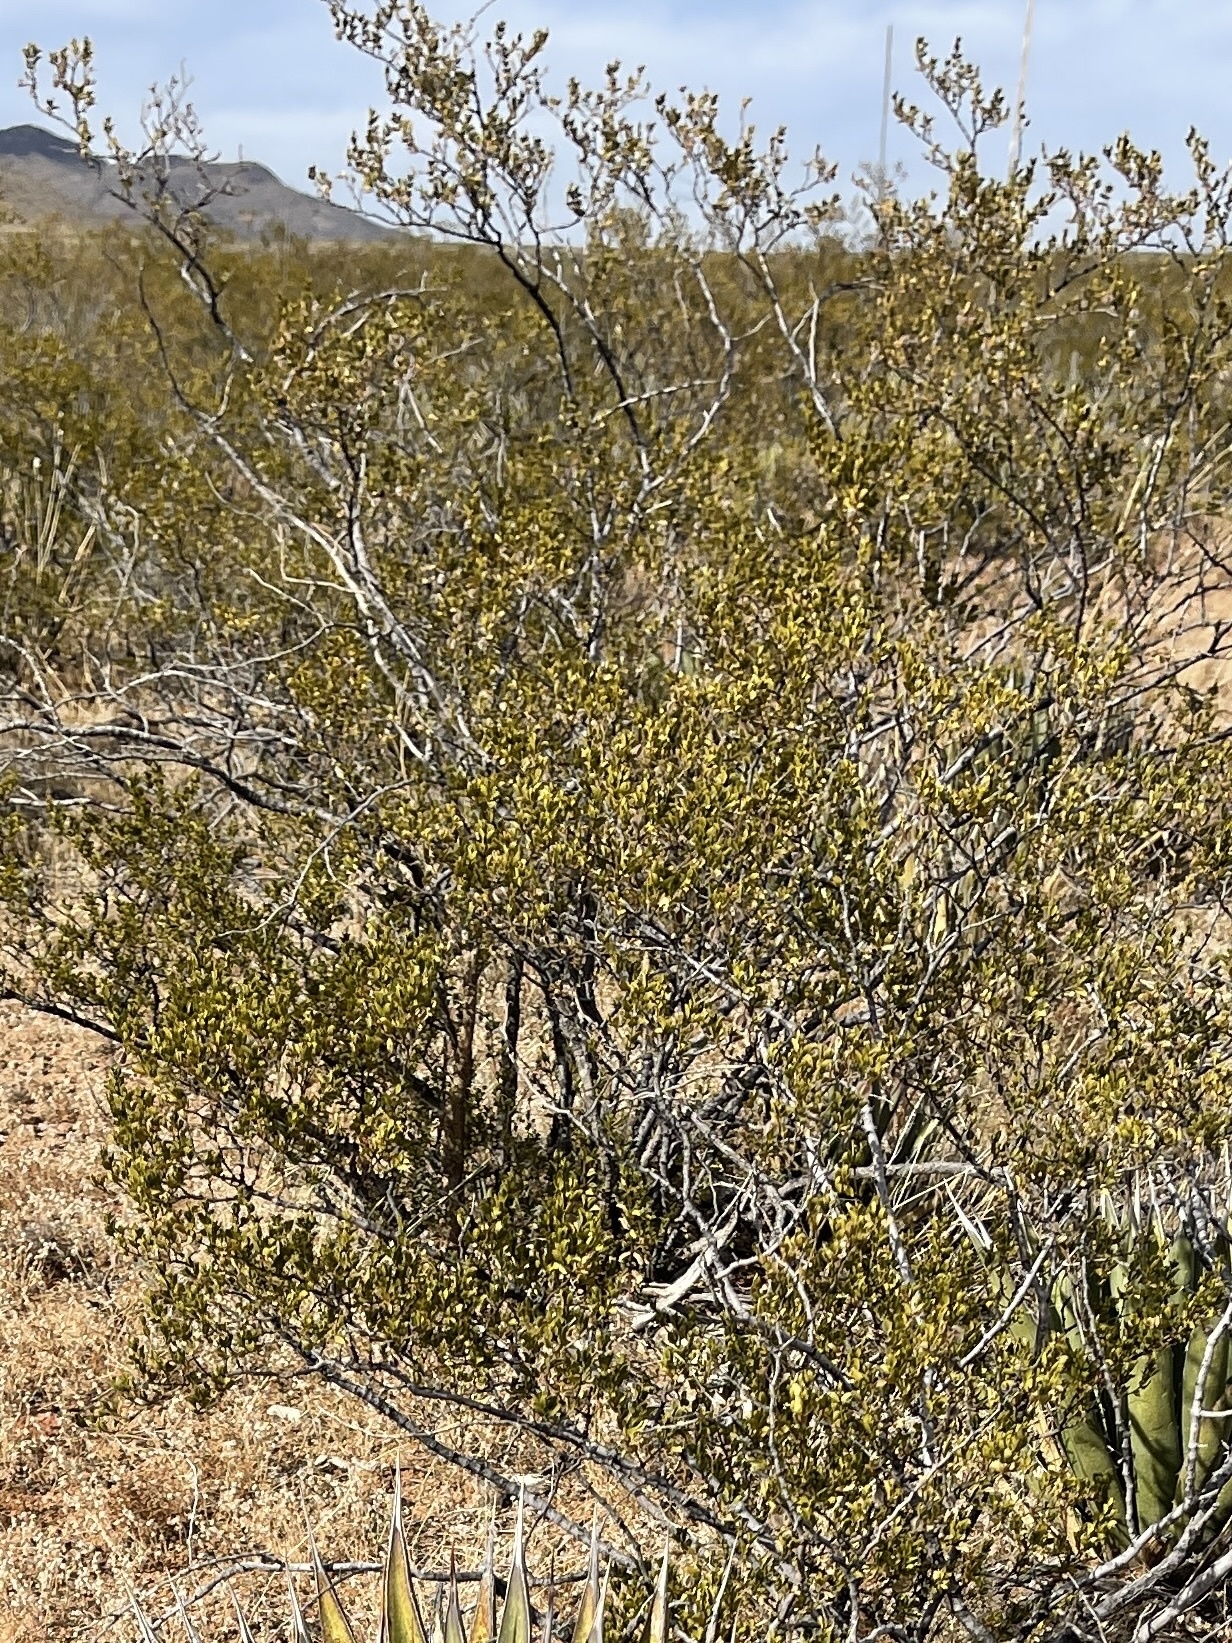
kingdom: Plantae
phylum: Tracheophyta
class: Magnoliopsida
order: Zygophyllales
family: Zygophyllaceae
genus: Larrea
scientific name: Larrea tridentata
